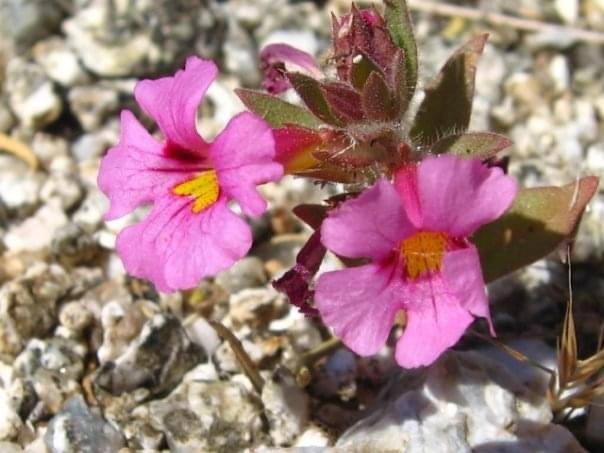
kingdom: Plantae
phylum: Tracheophyta
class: Magnoliopsida
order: Lamiales
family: Phrymaceae
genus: Diplacus
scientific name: Diplacus bigelovii
